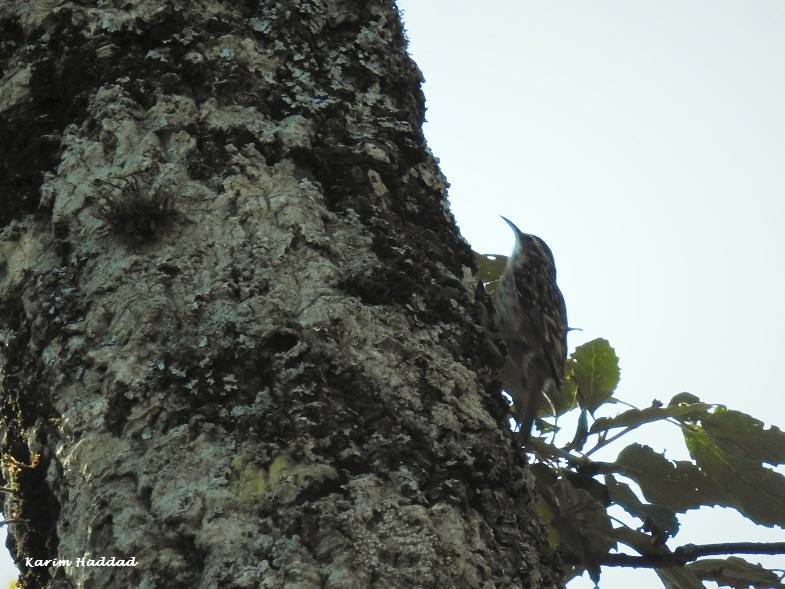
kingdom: Animalia
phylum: Chordata
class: Aves
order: Passeriformes
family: Certhiidae
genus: Certhia
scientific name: Certhia brachydactyla
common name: Short-toed treecreeper
